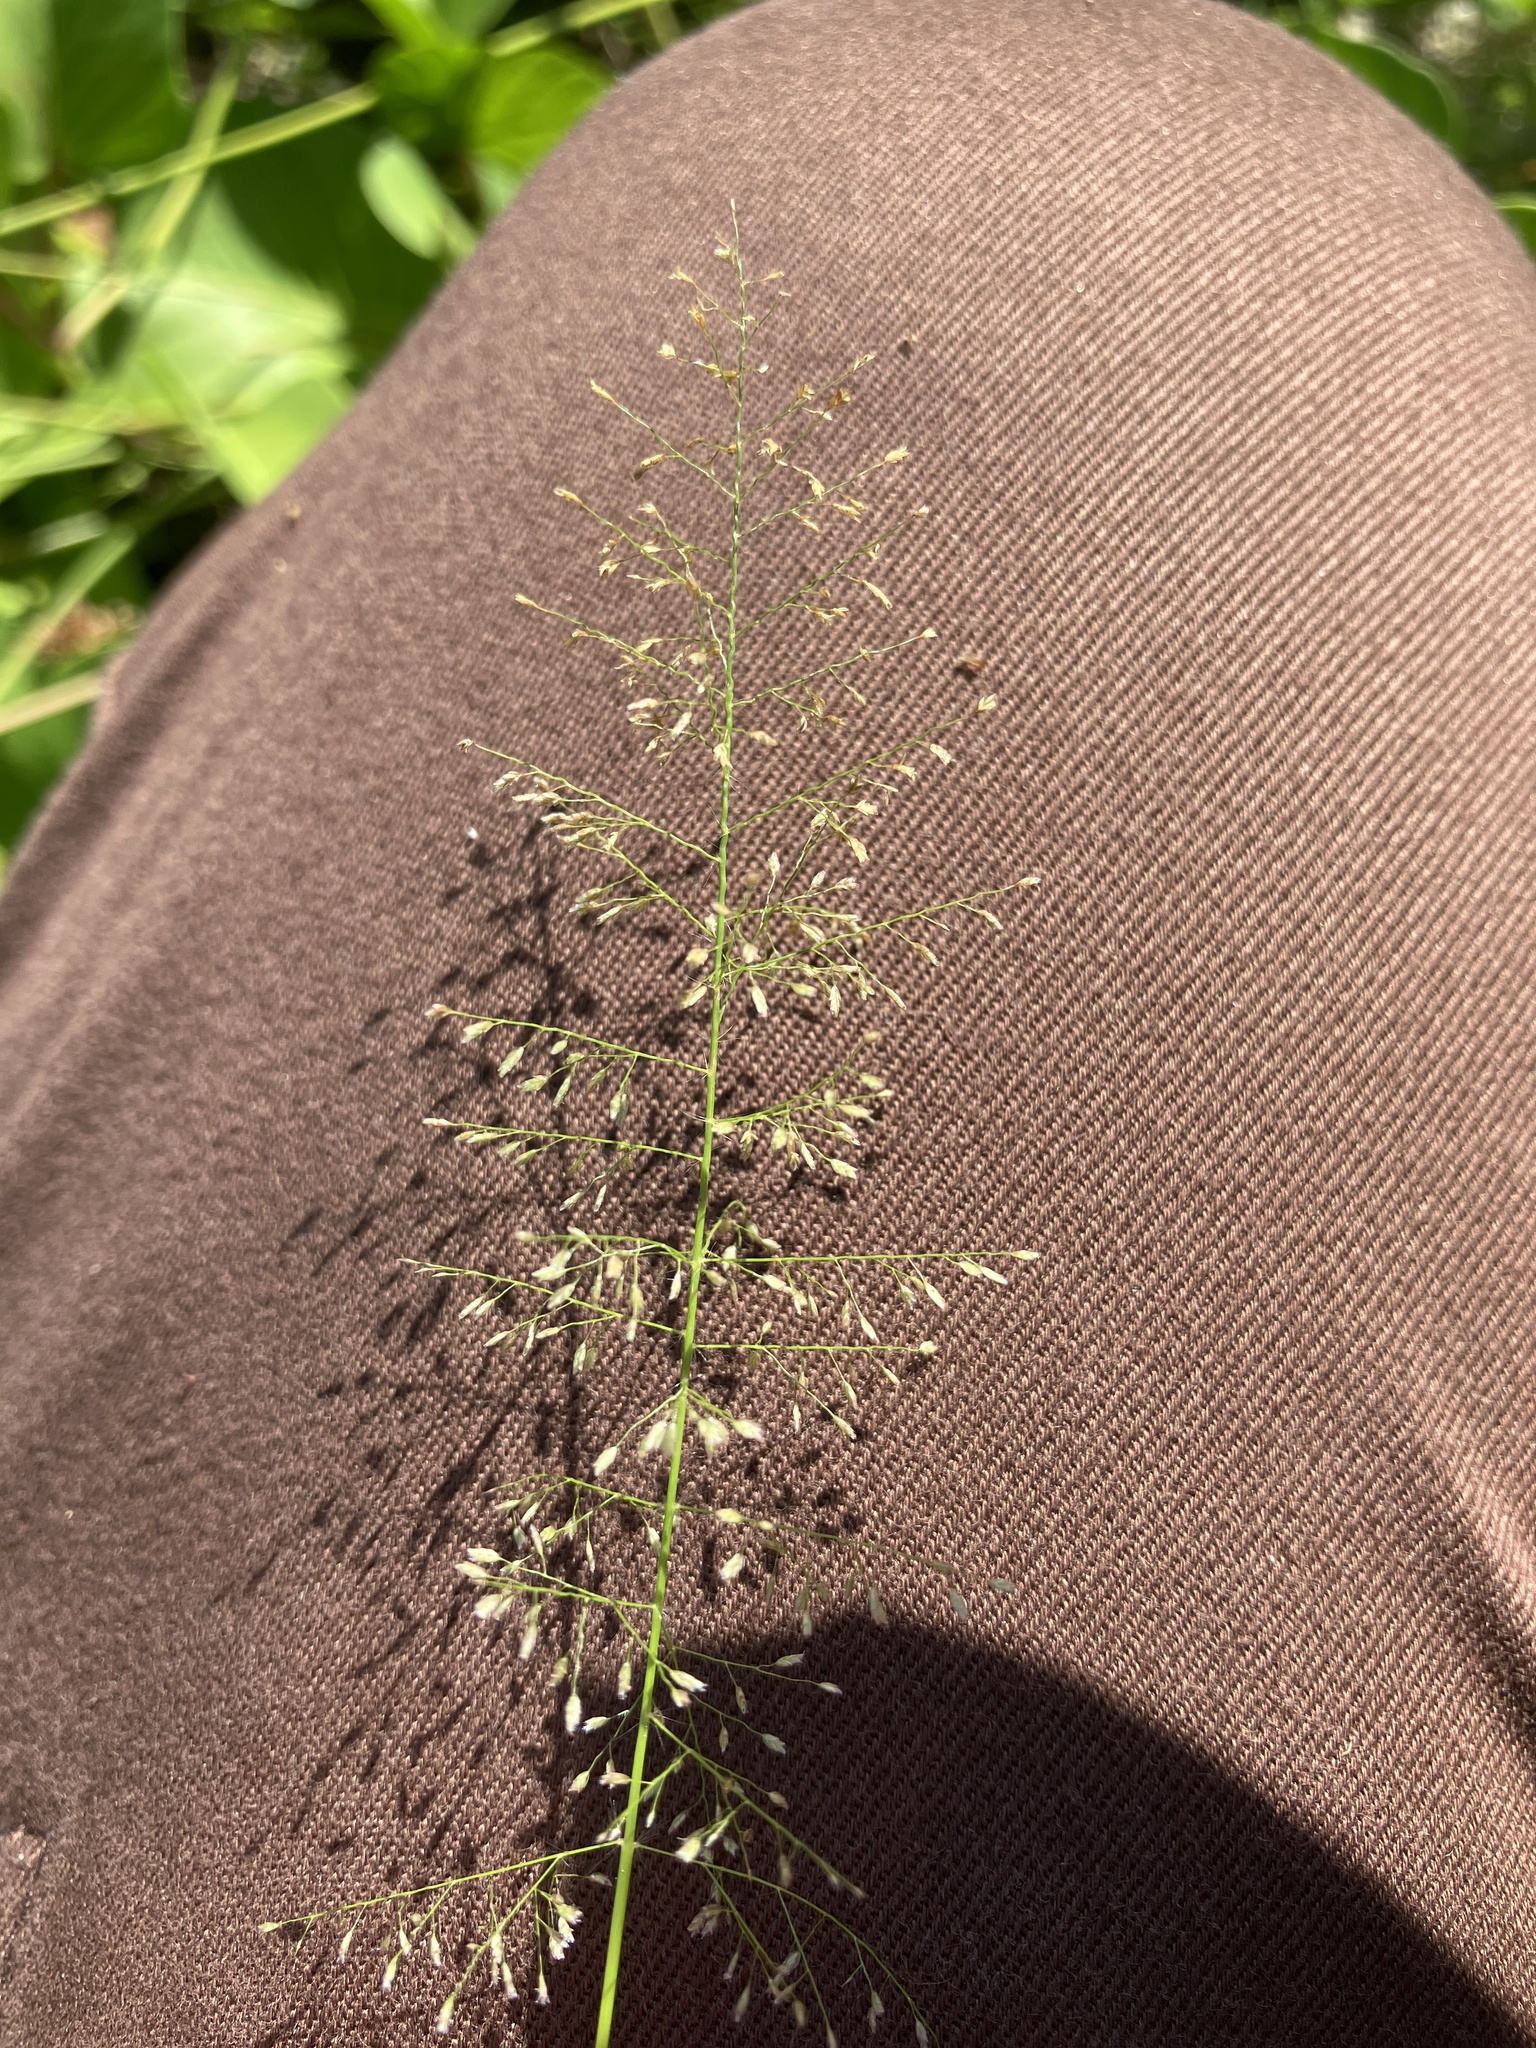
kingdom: Plantae
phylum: Tracheophyta
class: Liliopsida
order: Poales
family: Poaceae
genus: Eragrostis
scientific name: Eragrostis tenella
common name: Japanese lovegrass
